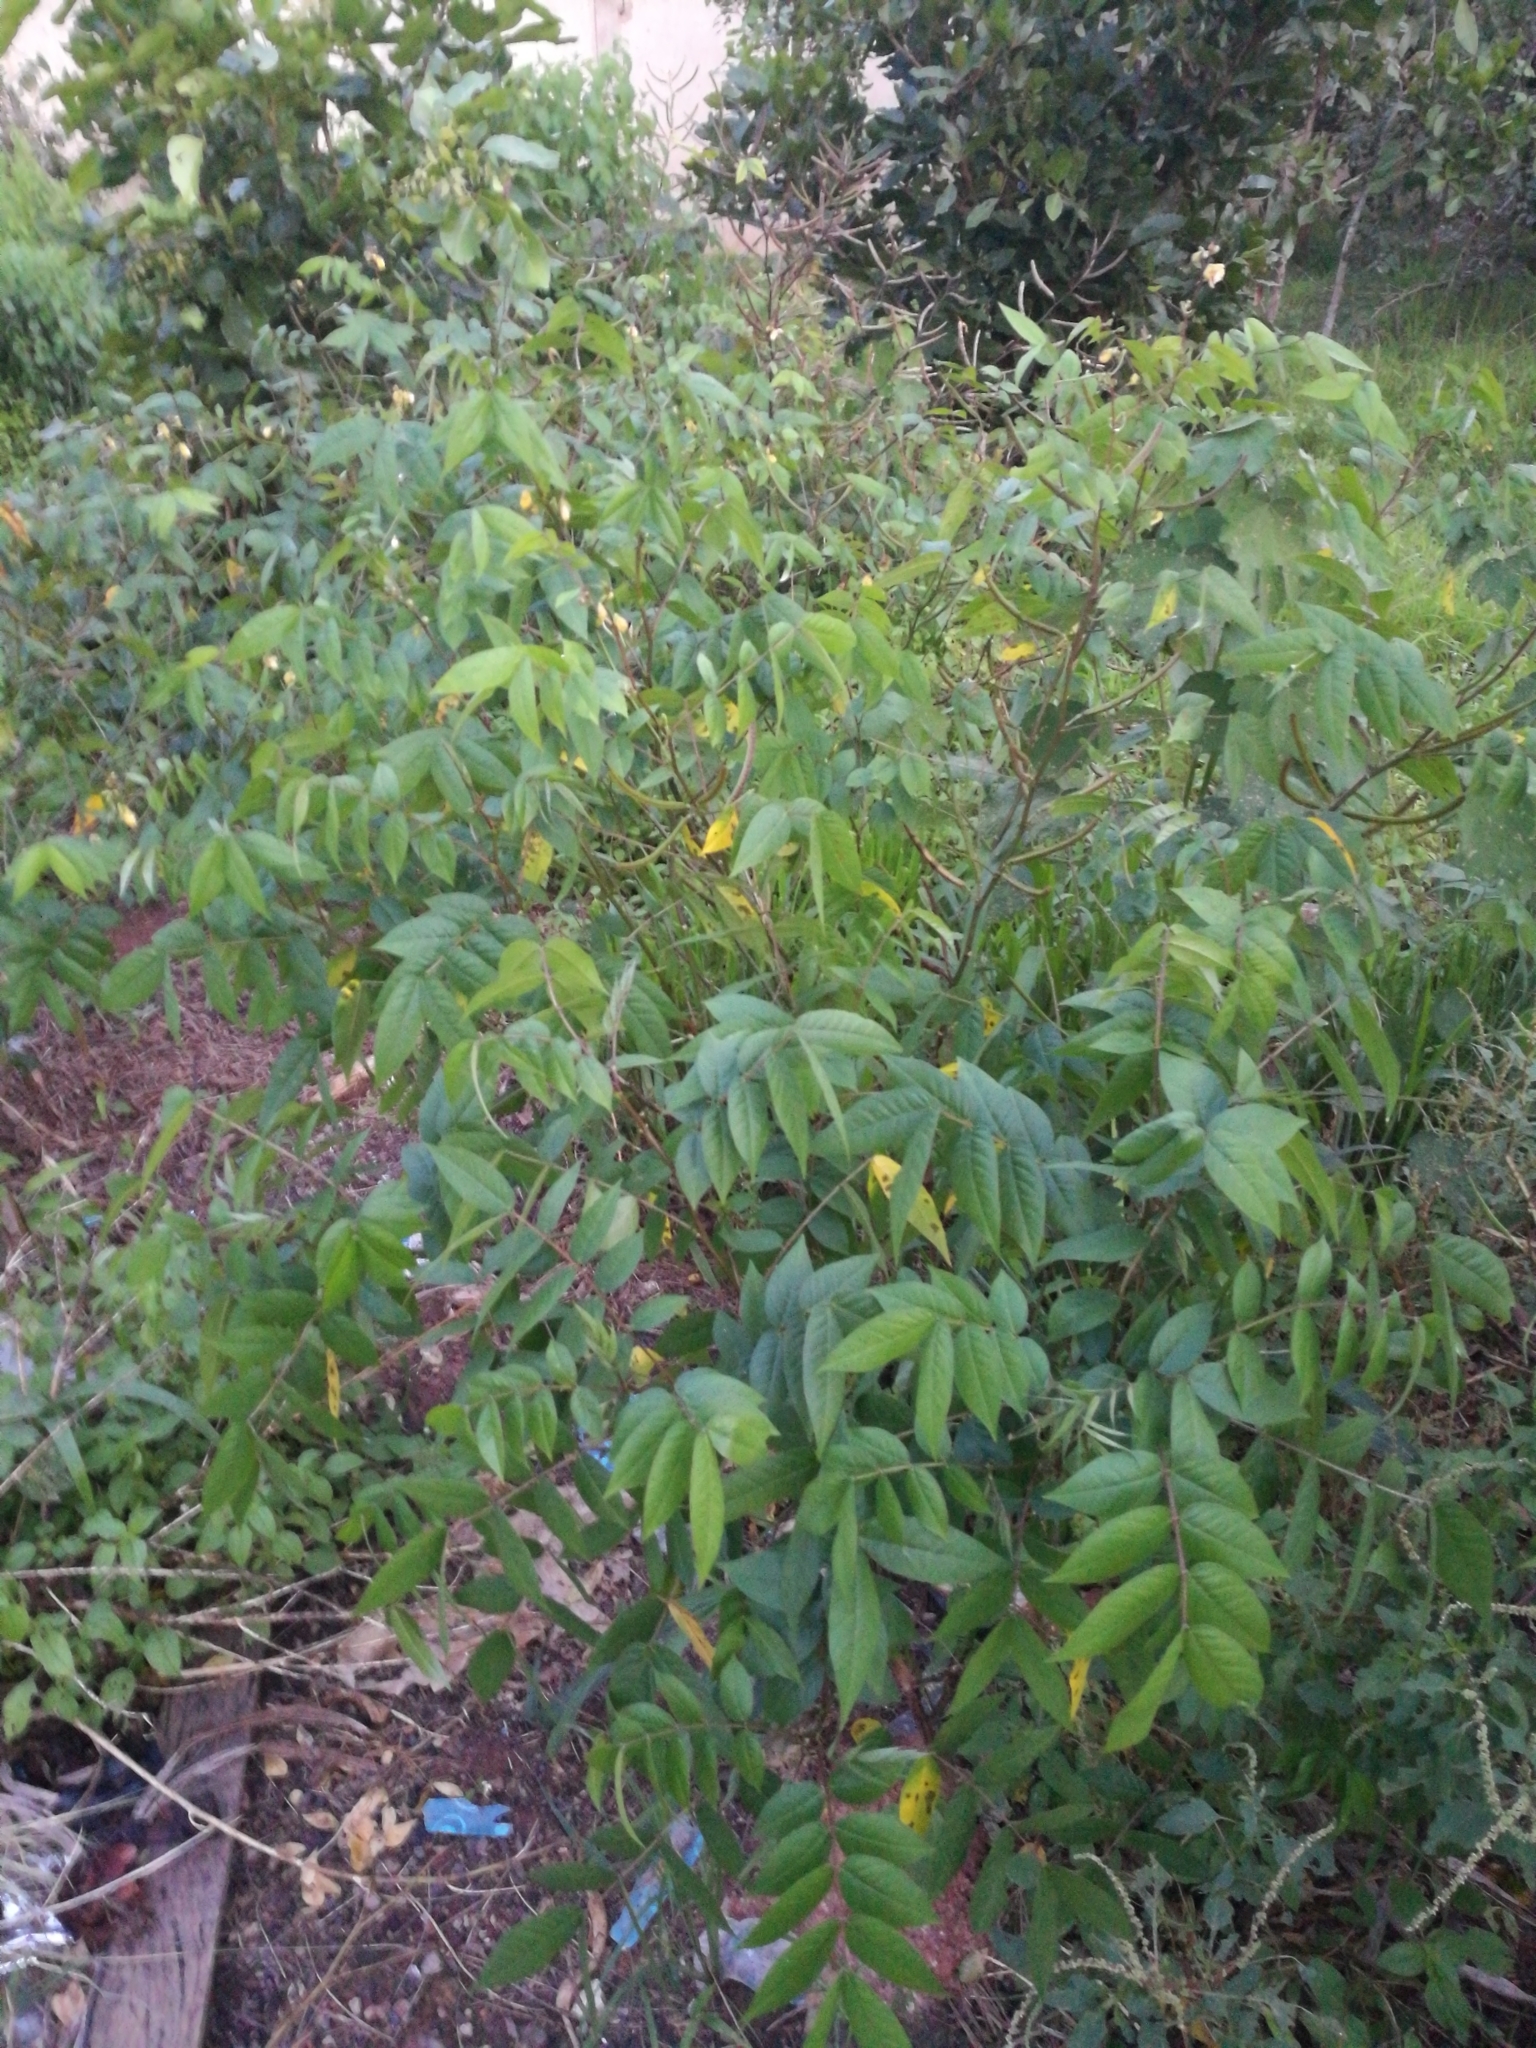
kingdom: Plantae
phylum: Tracheophyta
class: Magnoliopsida
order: Fabales
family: Fabaceae
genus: Senna
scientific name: Senna occidentalis
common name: Septicweed
